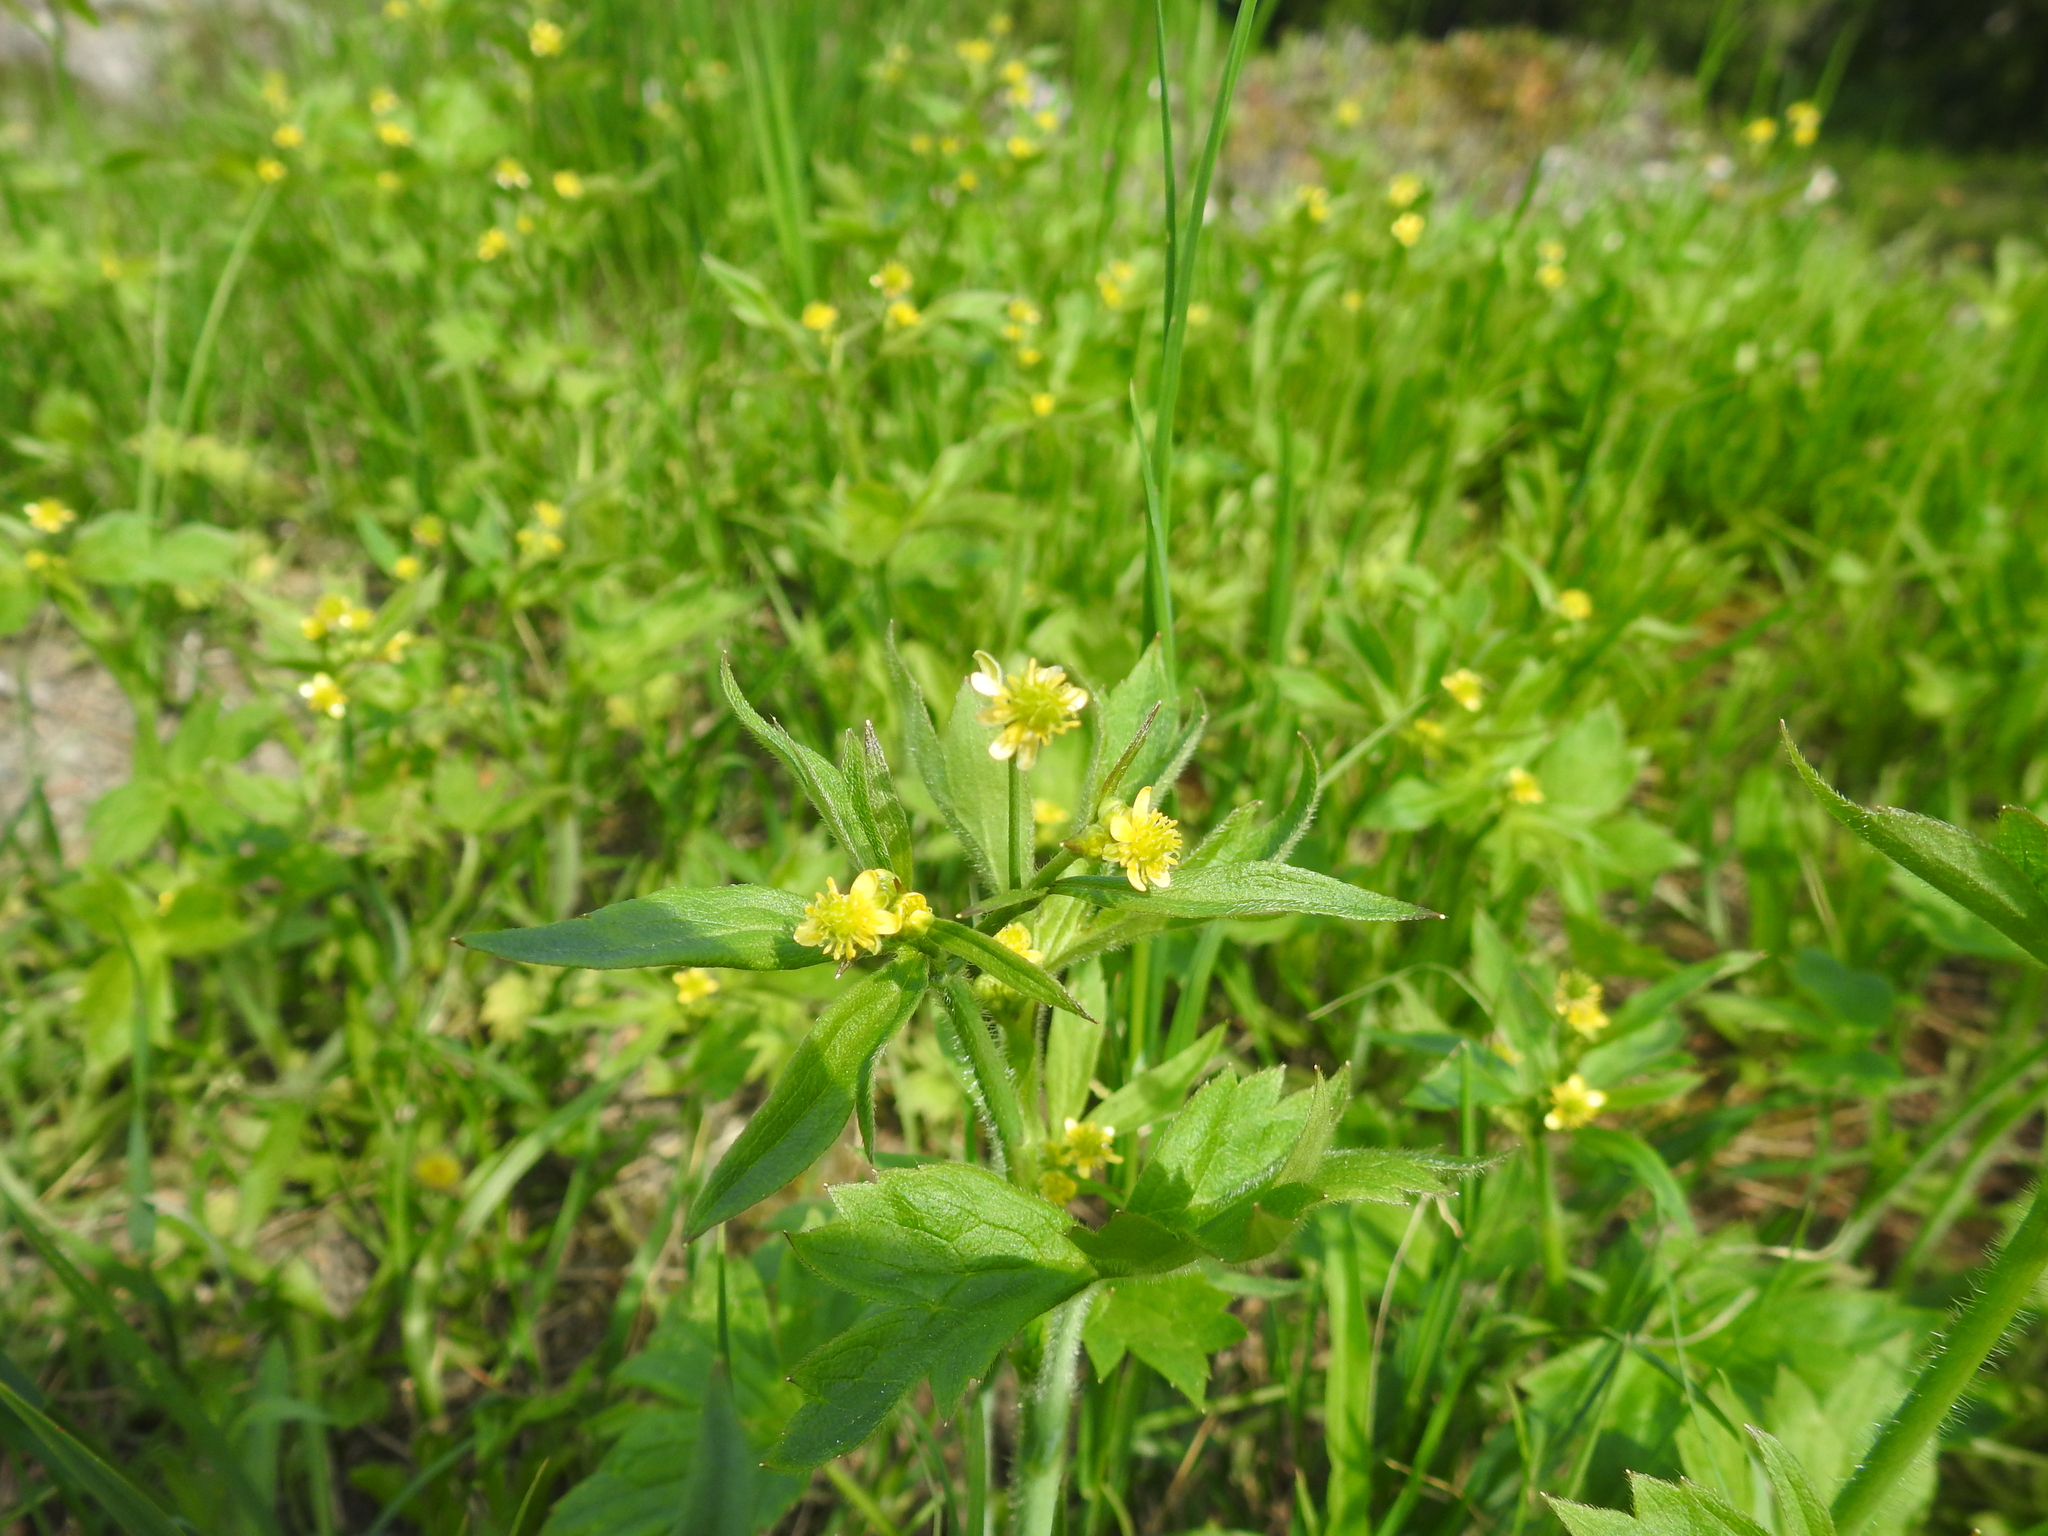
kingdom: Plantae
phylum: Tracheophyta
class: Magnoliopsida
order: Ranunculales
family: Ranunculaceae
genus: Ranunculus
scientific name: Ranunculus uncinatus
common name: Little buttercup
